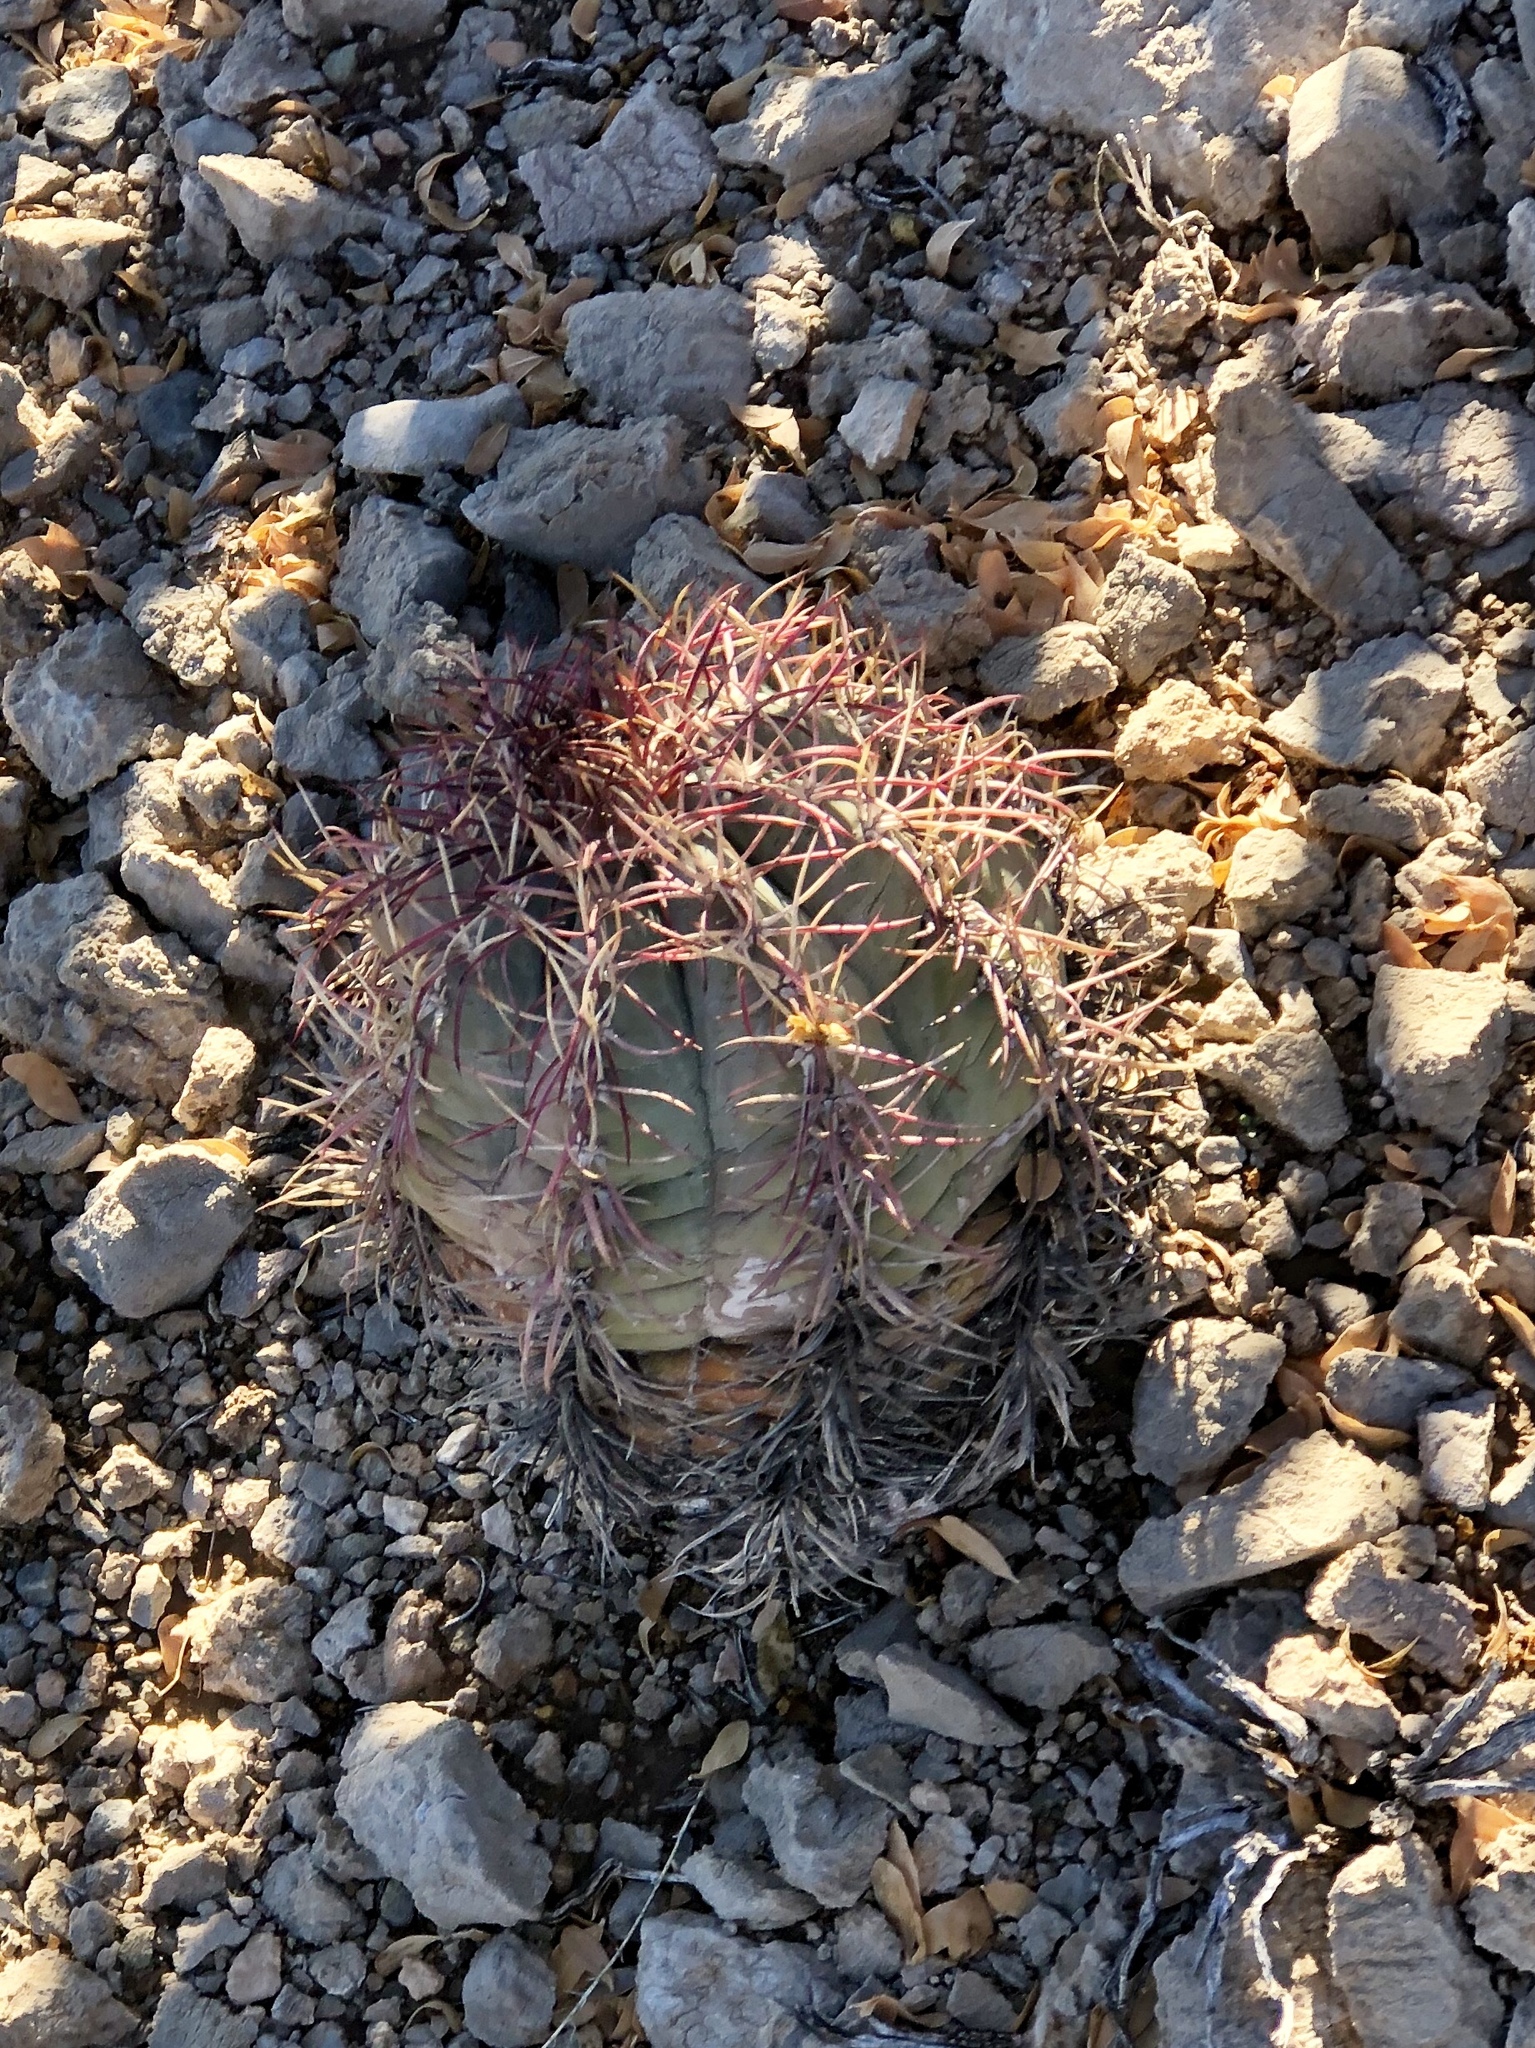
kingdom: Plantae
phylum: Tracheophyta
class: Magnoliopsida
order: Caryophyllales
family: Cactaceae
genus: Echinocactus
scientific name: Echinocactus horizonthalonius
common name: Devilshead
